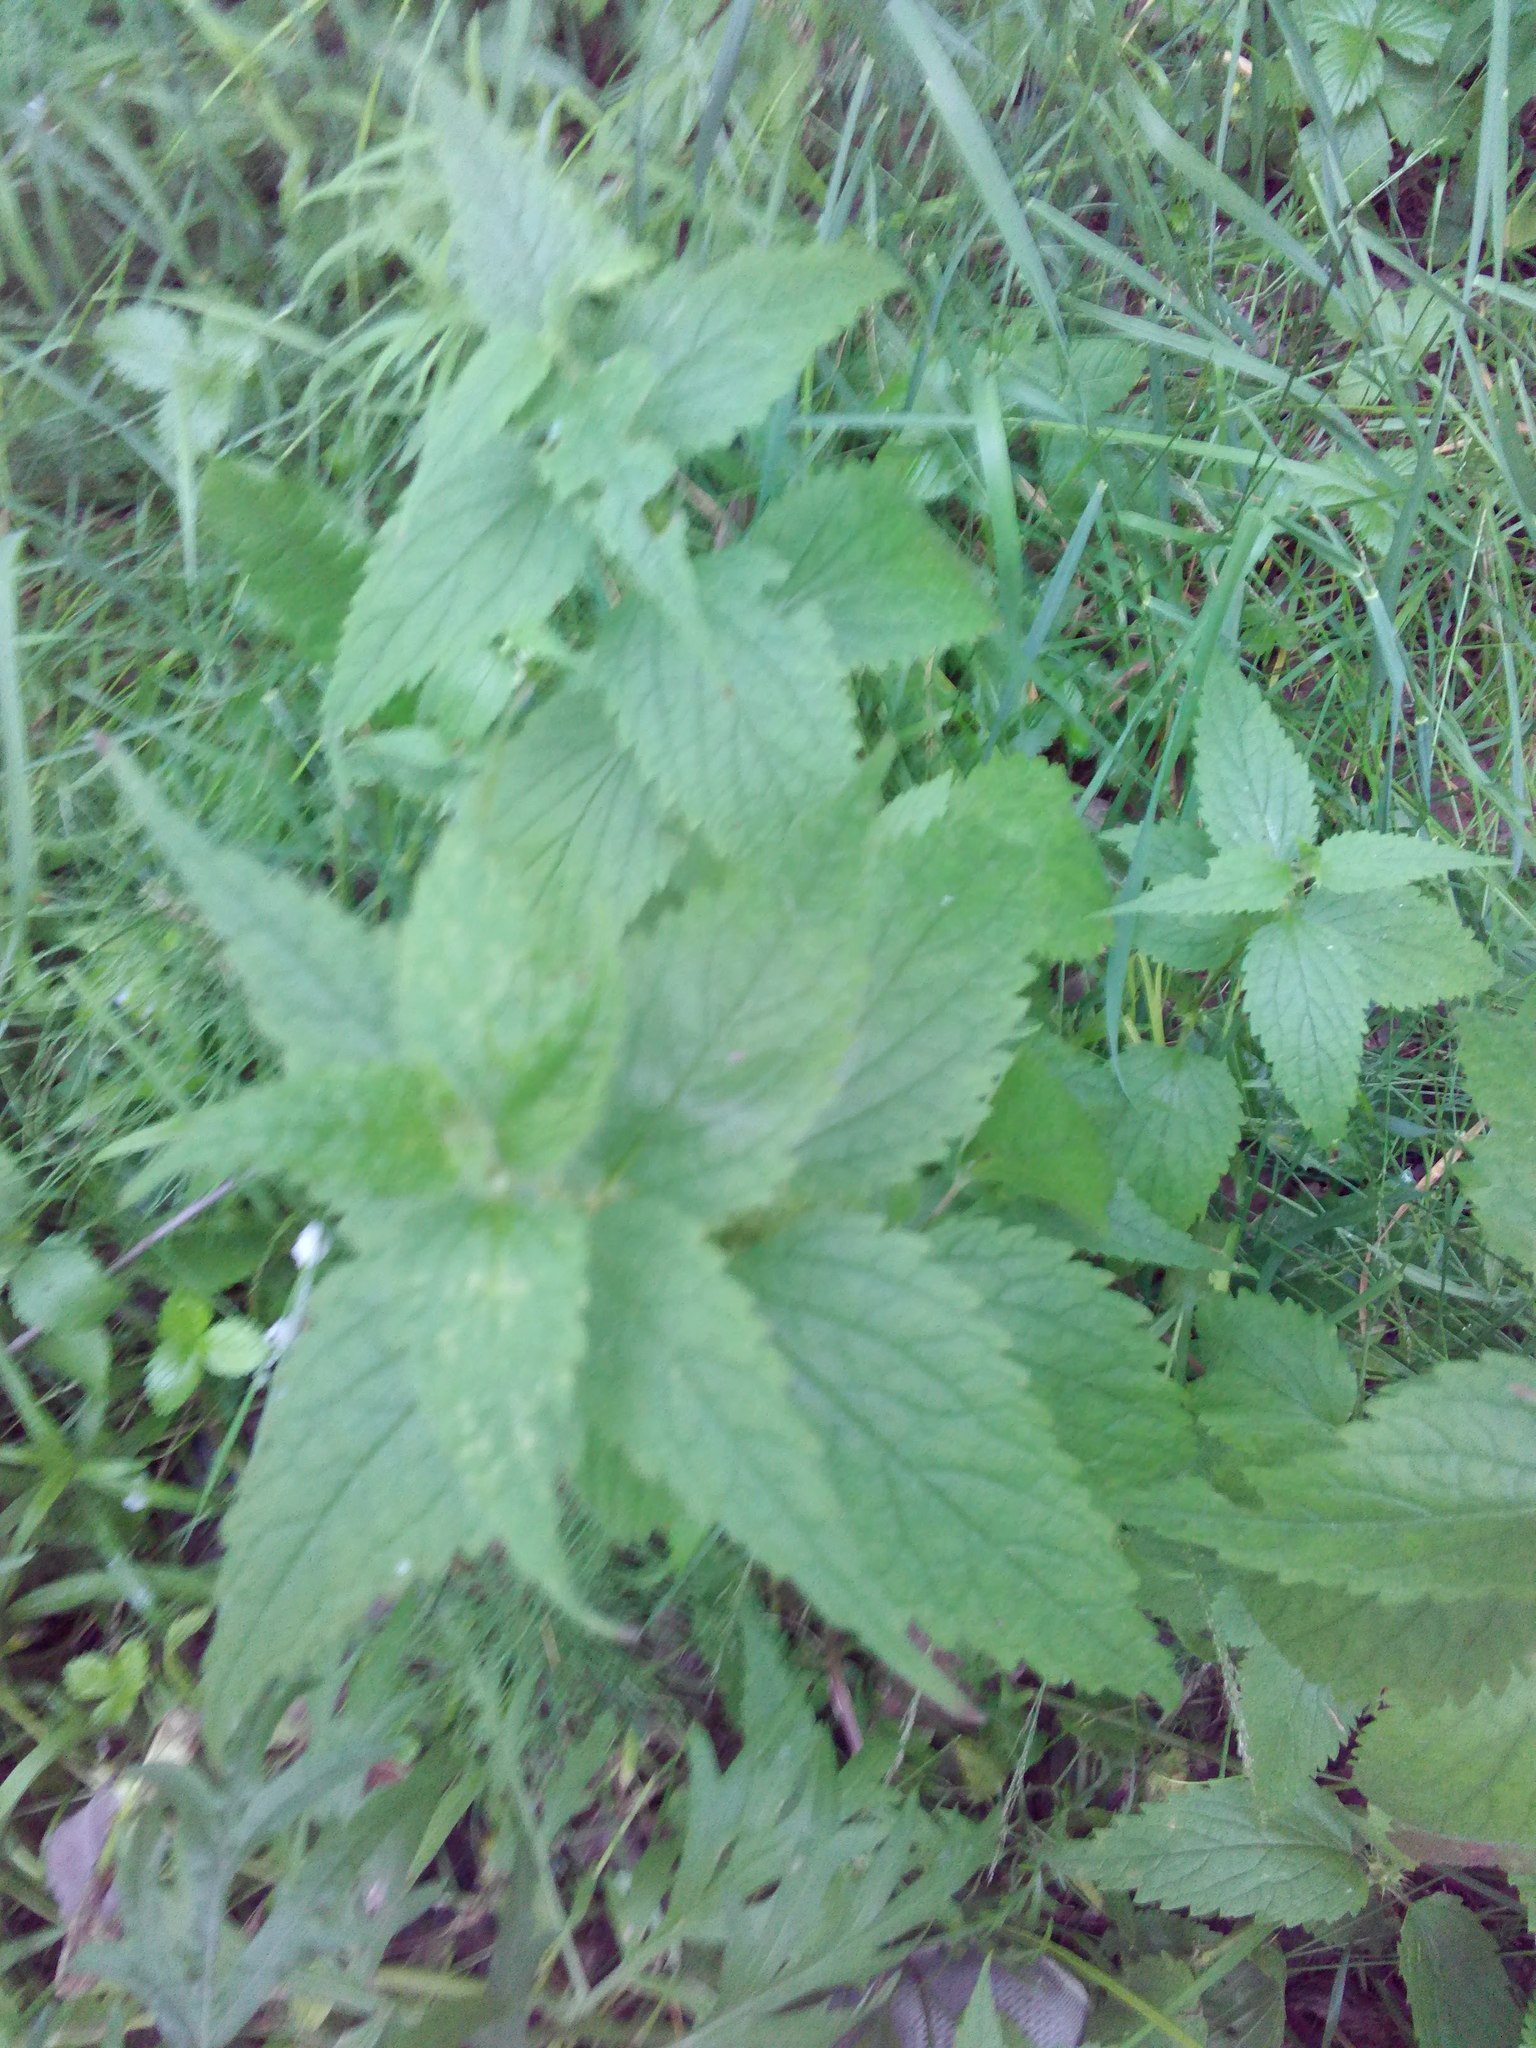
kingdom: Plantae
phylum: Tracheophyta
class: Magnoliopsida
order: Lamiales
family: Lamiaceae
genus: Lamium
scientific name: Lamium album
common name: White dead-nettle
